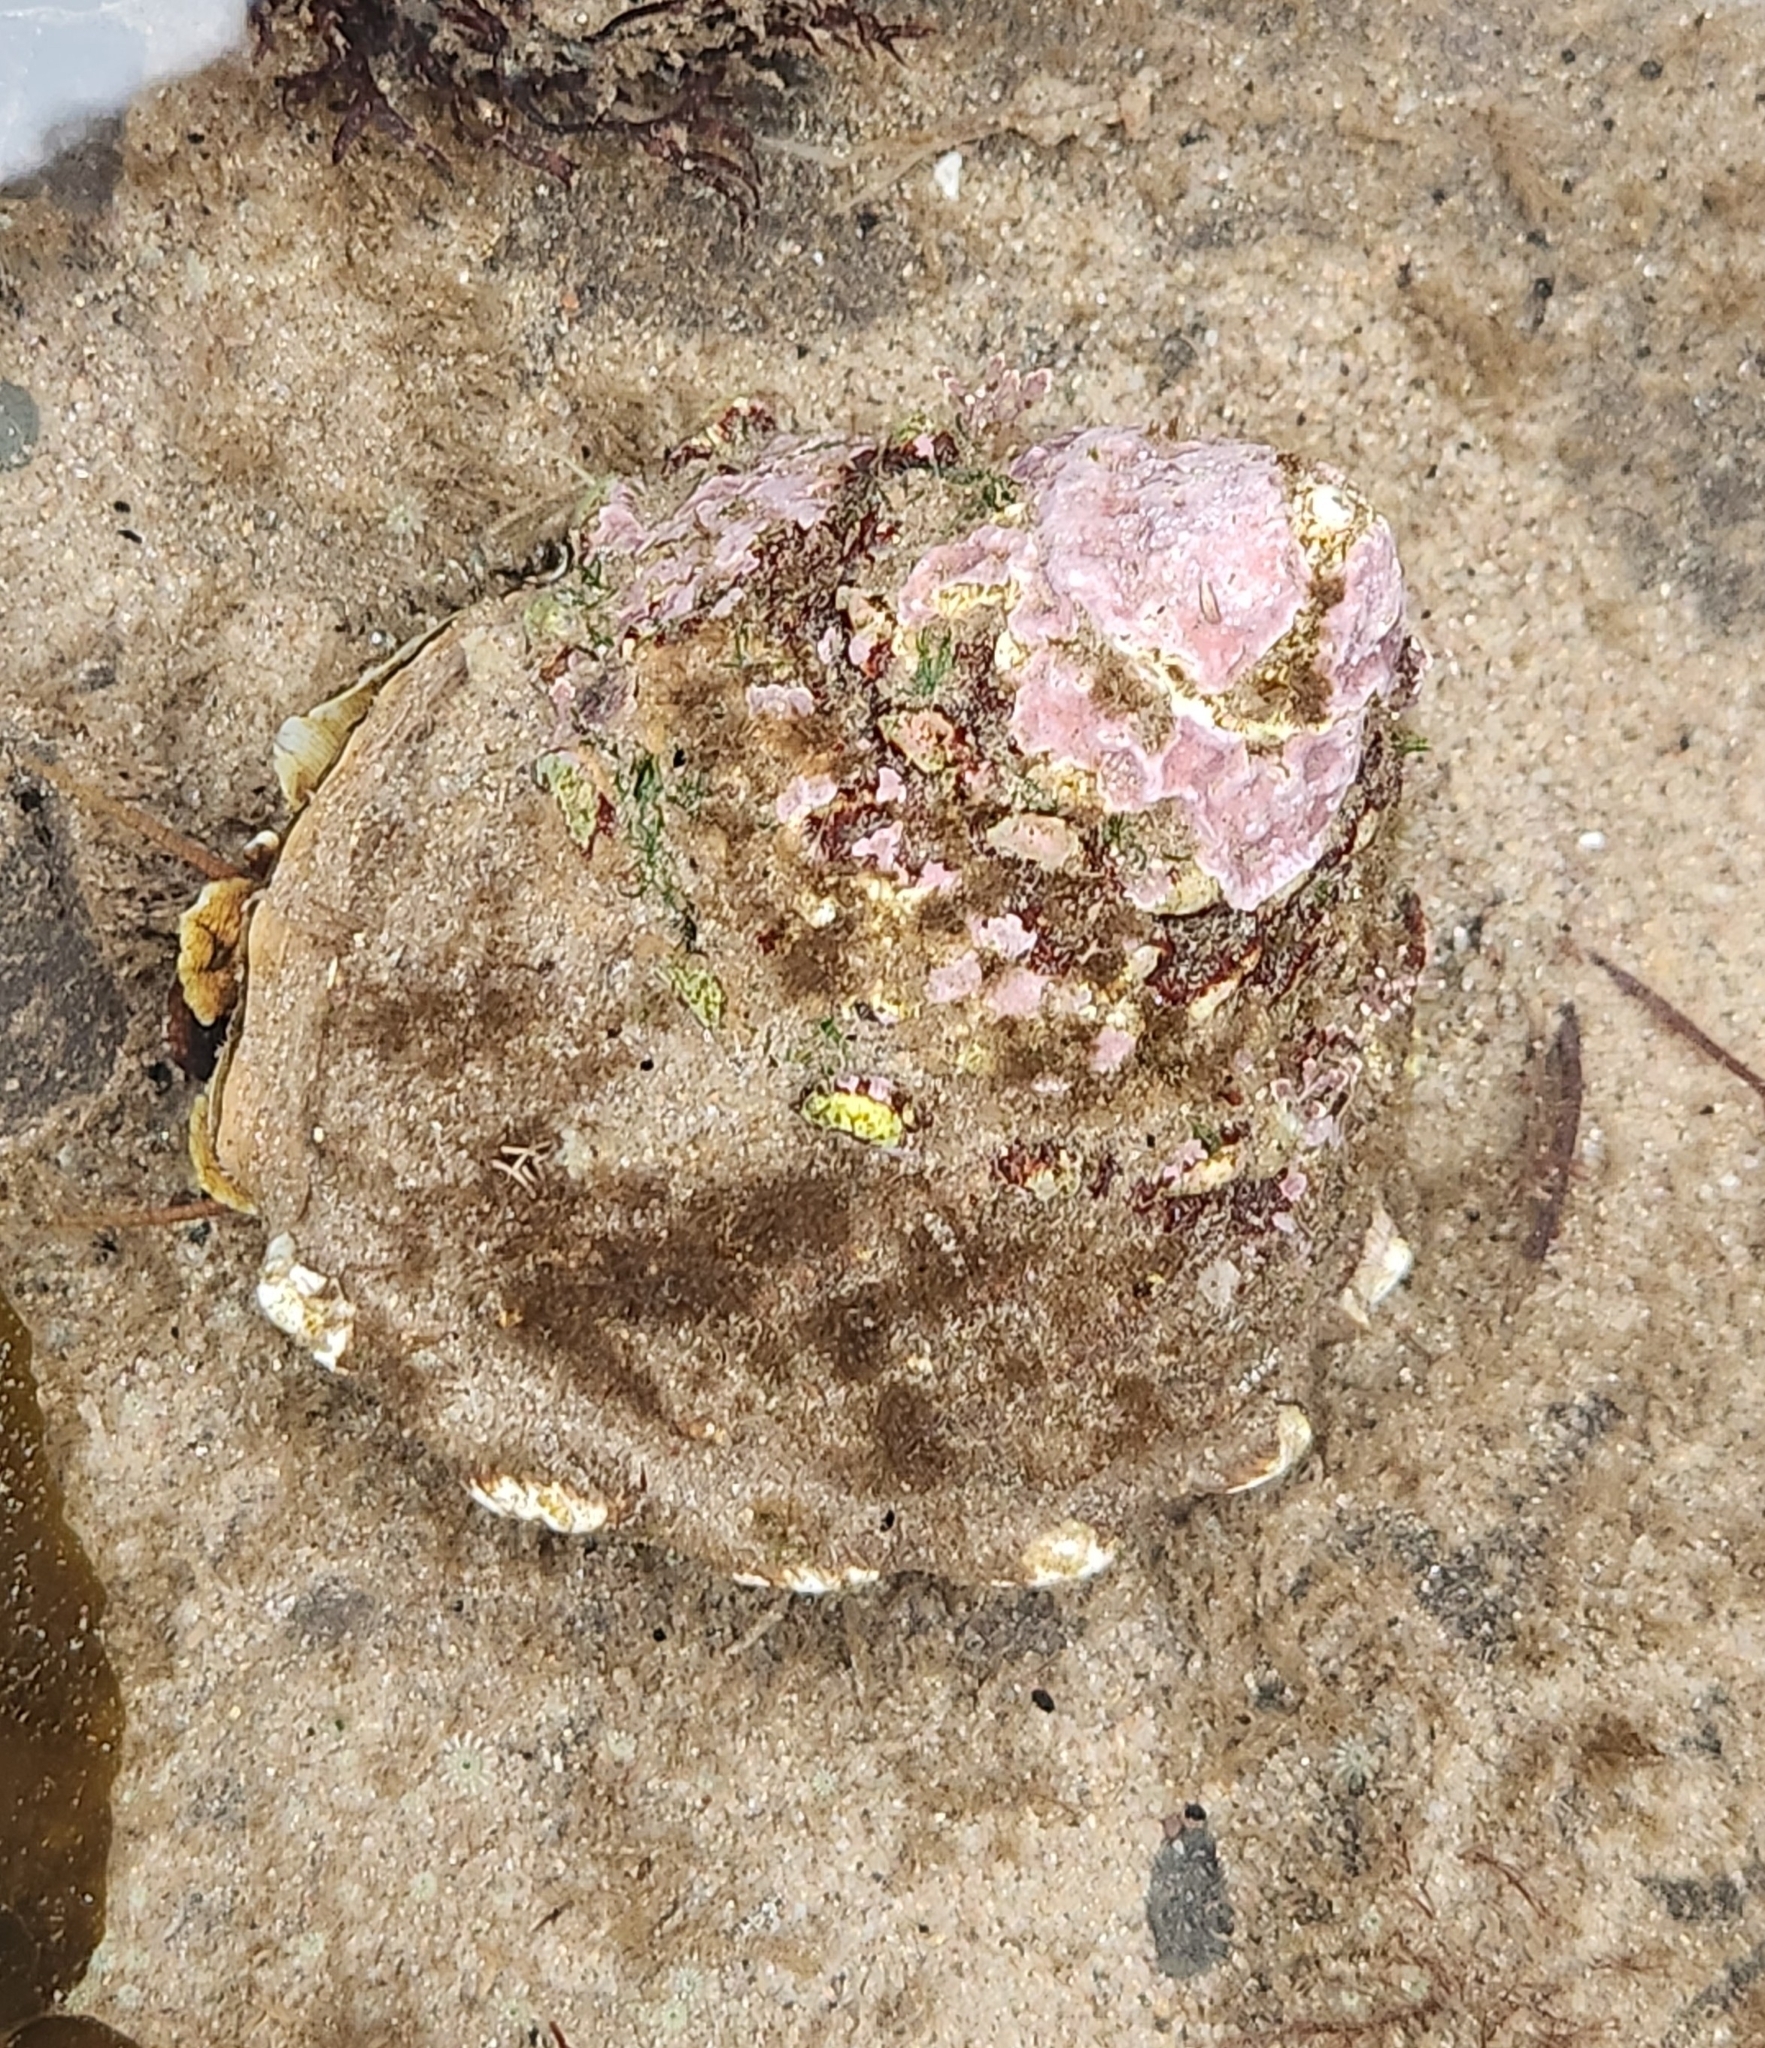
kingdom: Animalia
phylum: Mollusca
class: Gastropoda
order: Trochida
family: Turbinidae
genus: Megastraea
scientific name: Megastraea undosa
